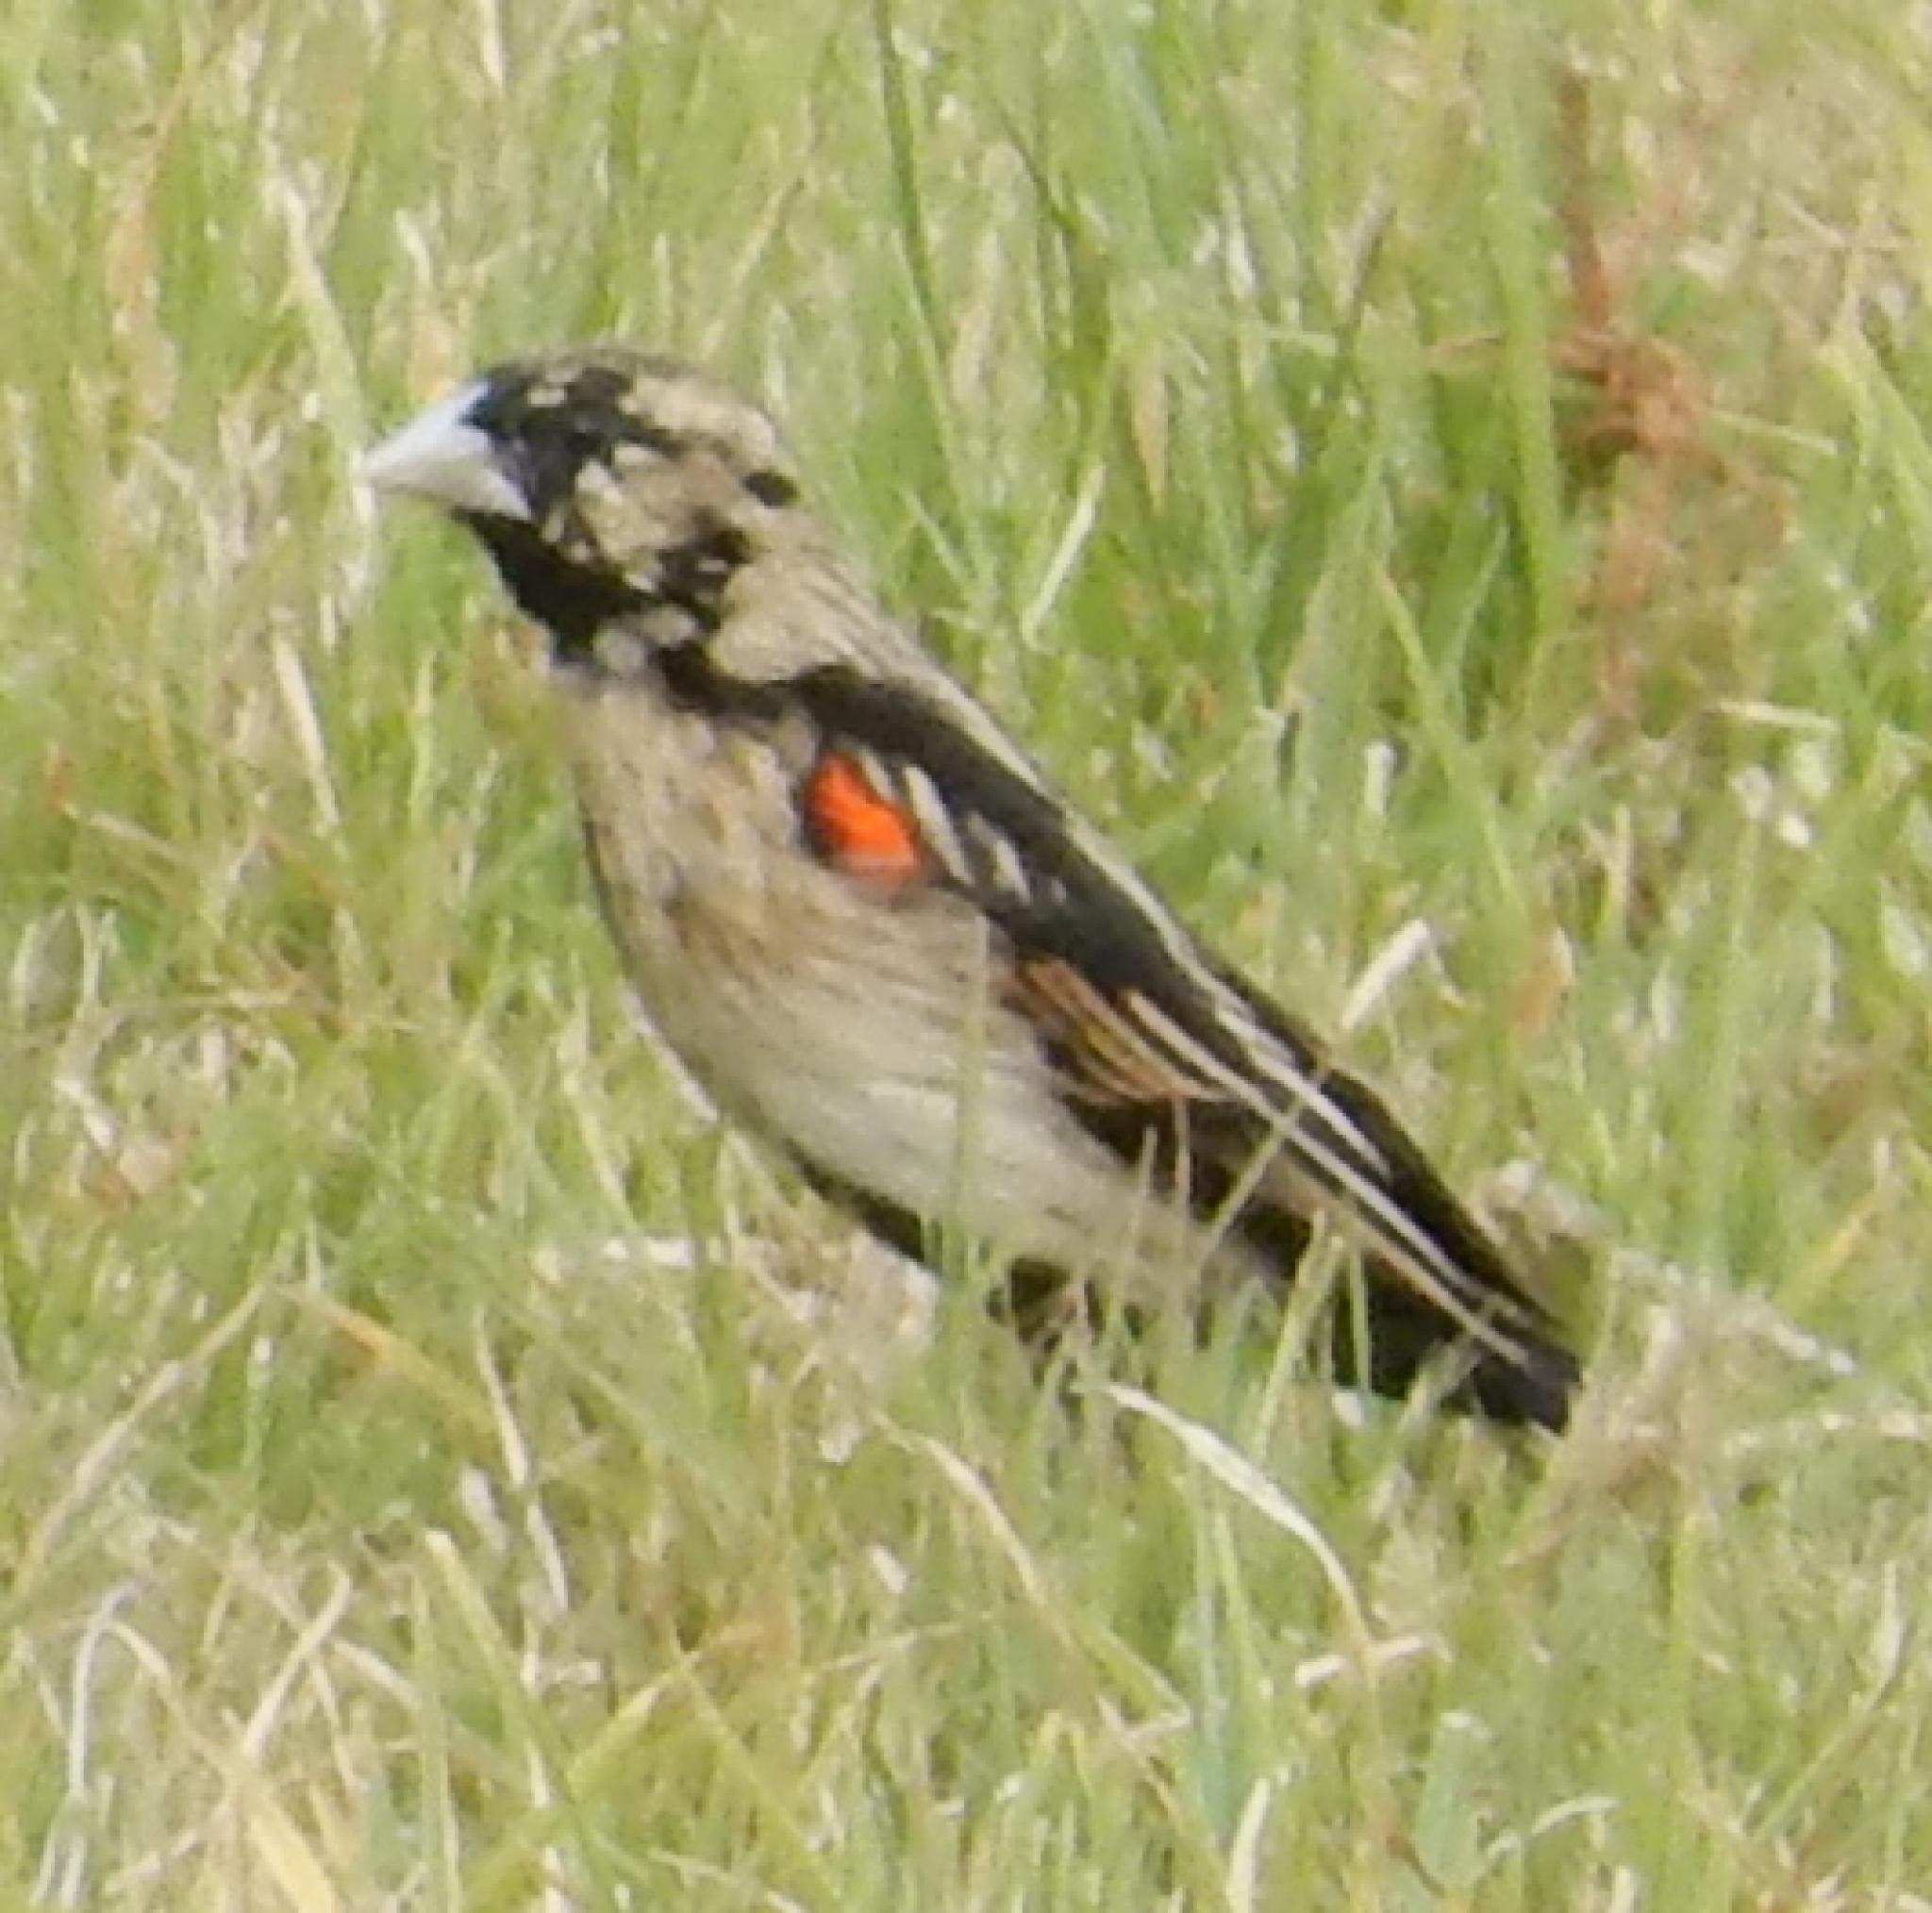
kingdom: Animalia
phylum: Chordata
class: Aves
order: Passeriformes
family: Ploceidae
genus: Euplectes
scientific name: Euplectes progne
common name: Long-tailed widowbird
